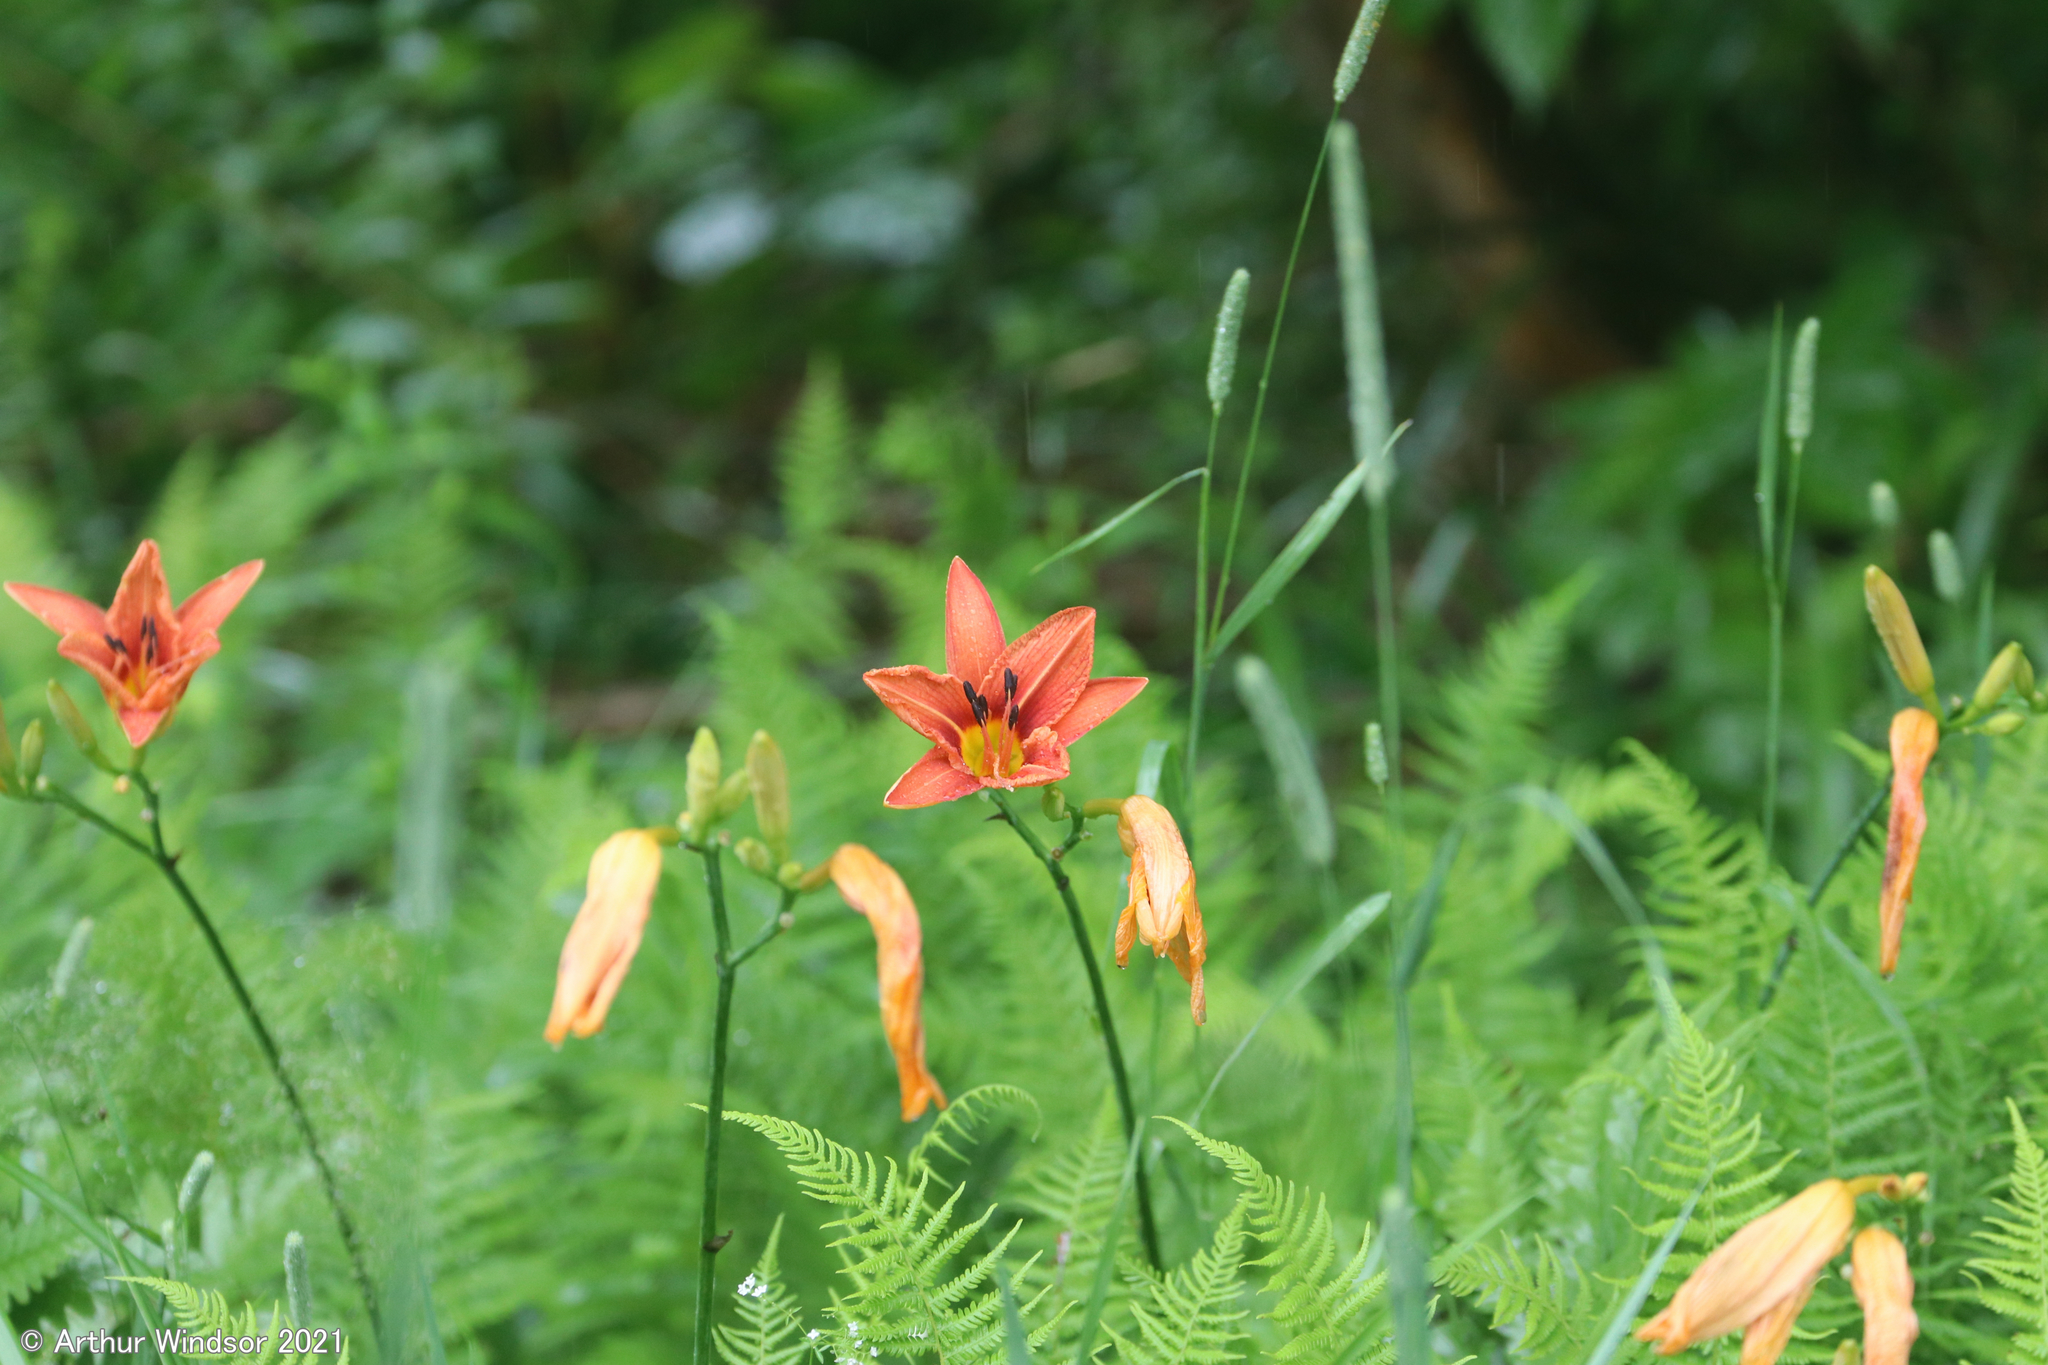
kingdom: Plantae
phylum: Tracheophyta
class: Liliopsida
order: Asparagales
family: Asphodelaceae
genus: Hemerocallis
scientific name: Hemerocallis fulva
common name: Orange day-lily
